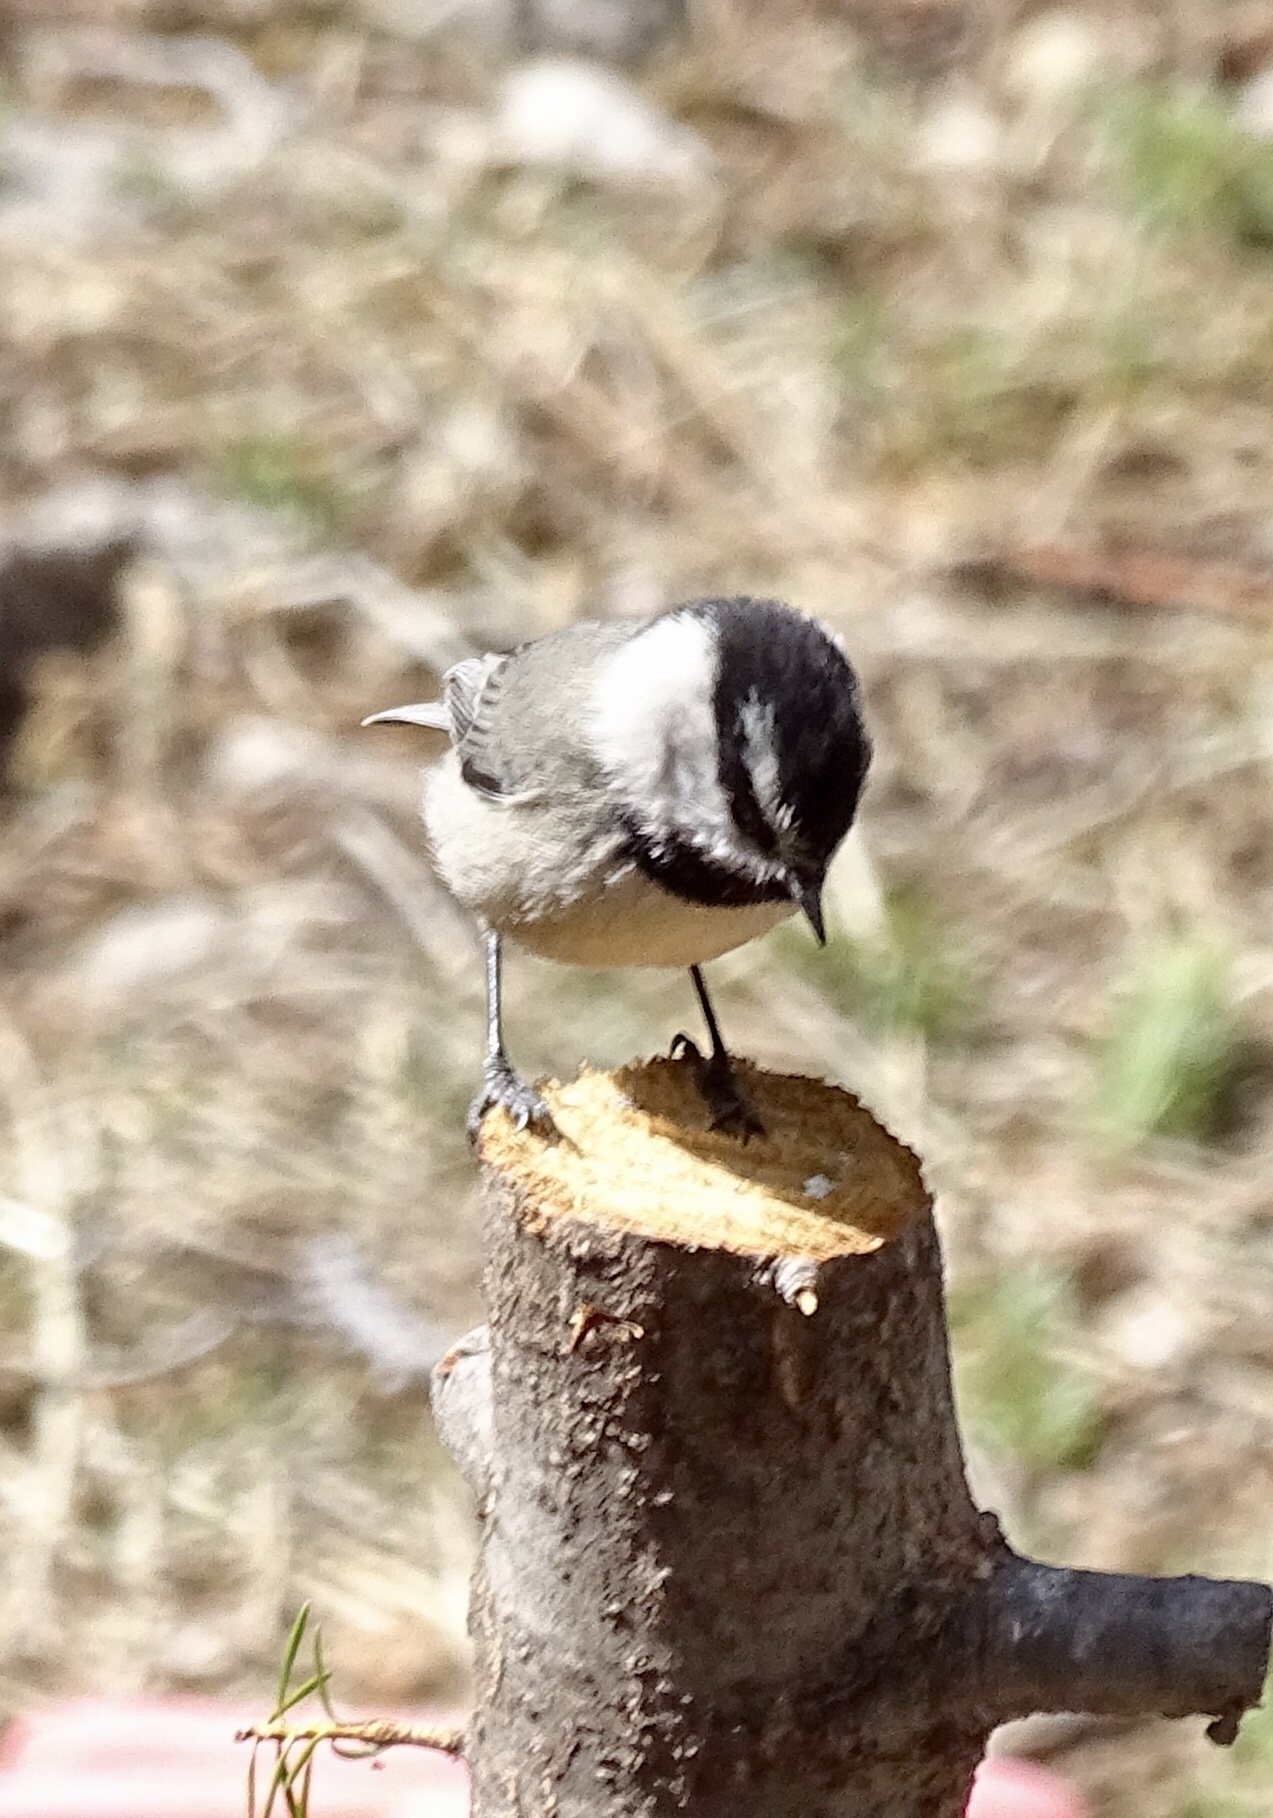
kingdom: Animalia
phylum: Chordata
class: Aves
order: Passeriformes
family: Paridae
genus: Poecile
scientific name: Poecile gambeli
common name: Mountain chickadee
